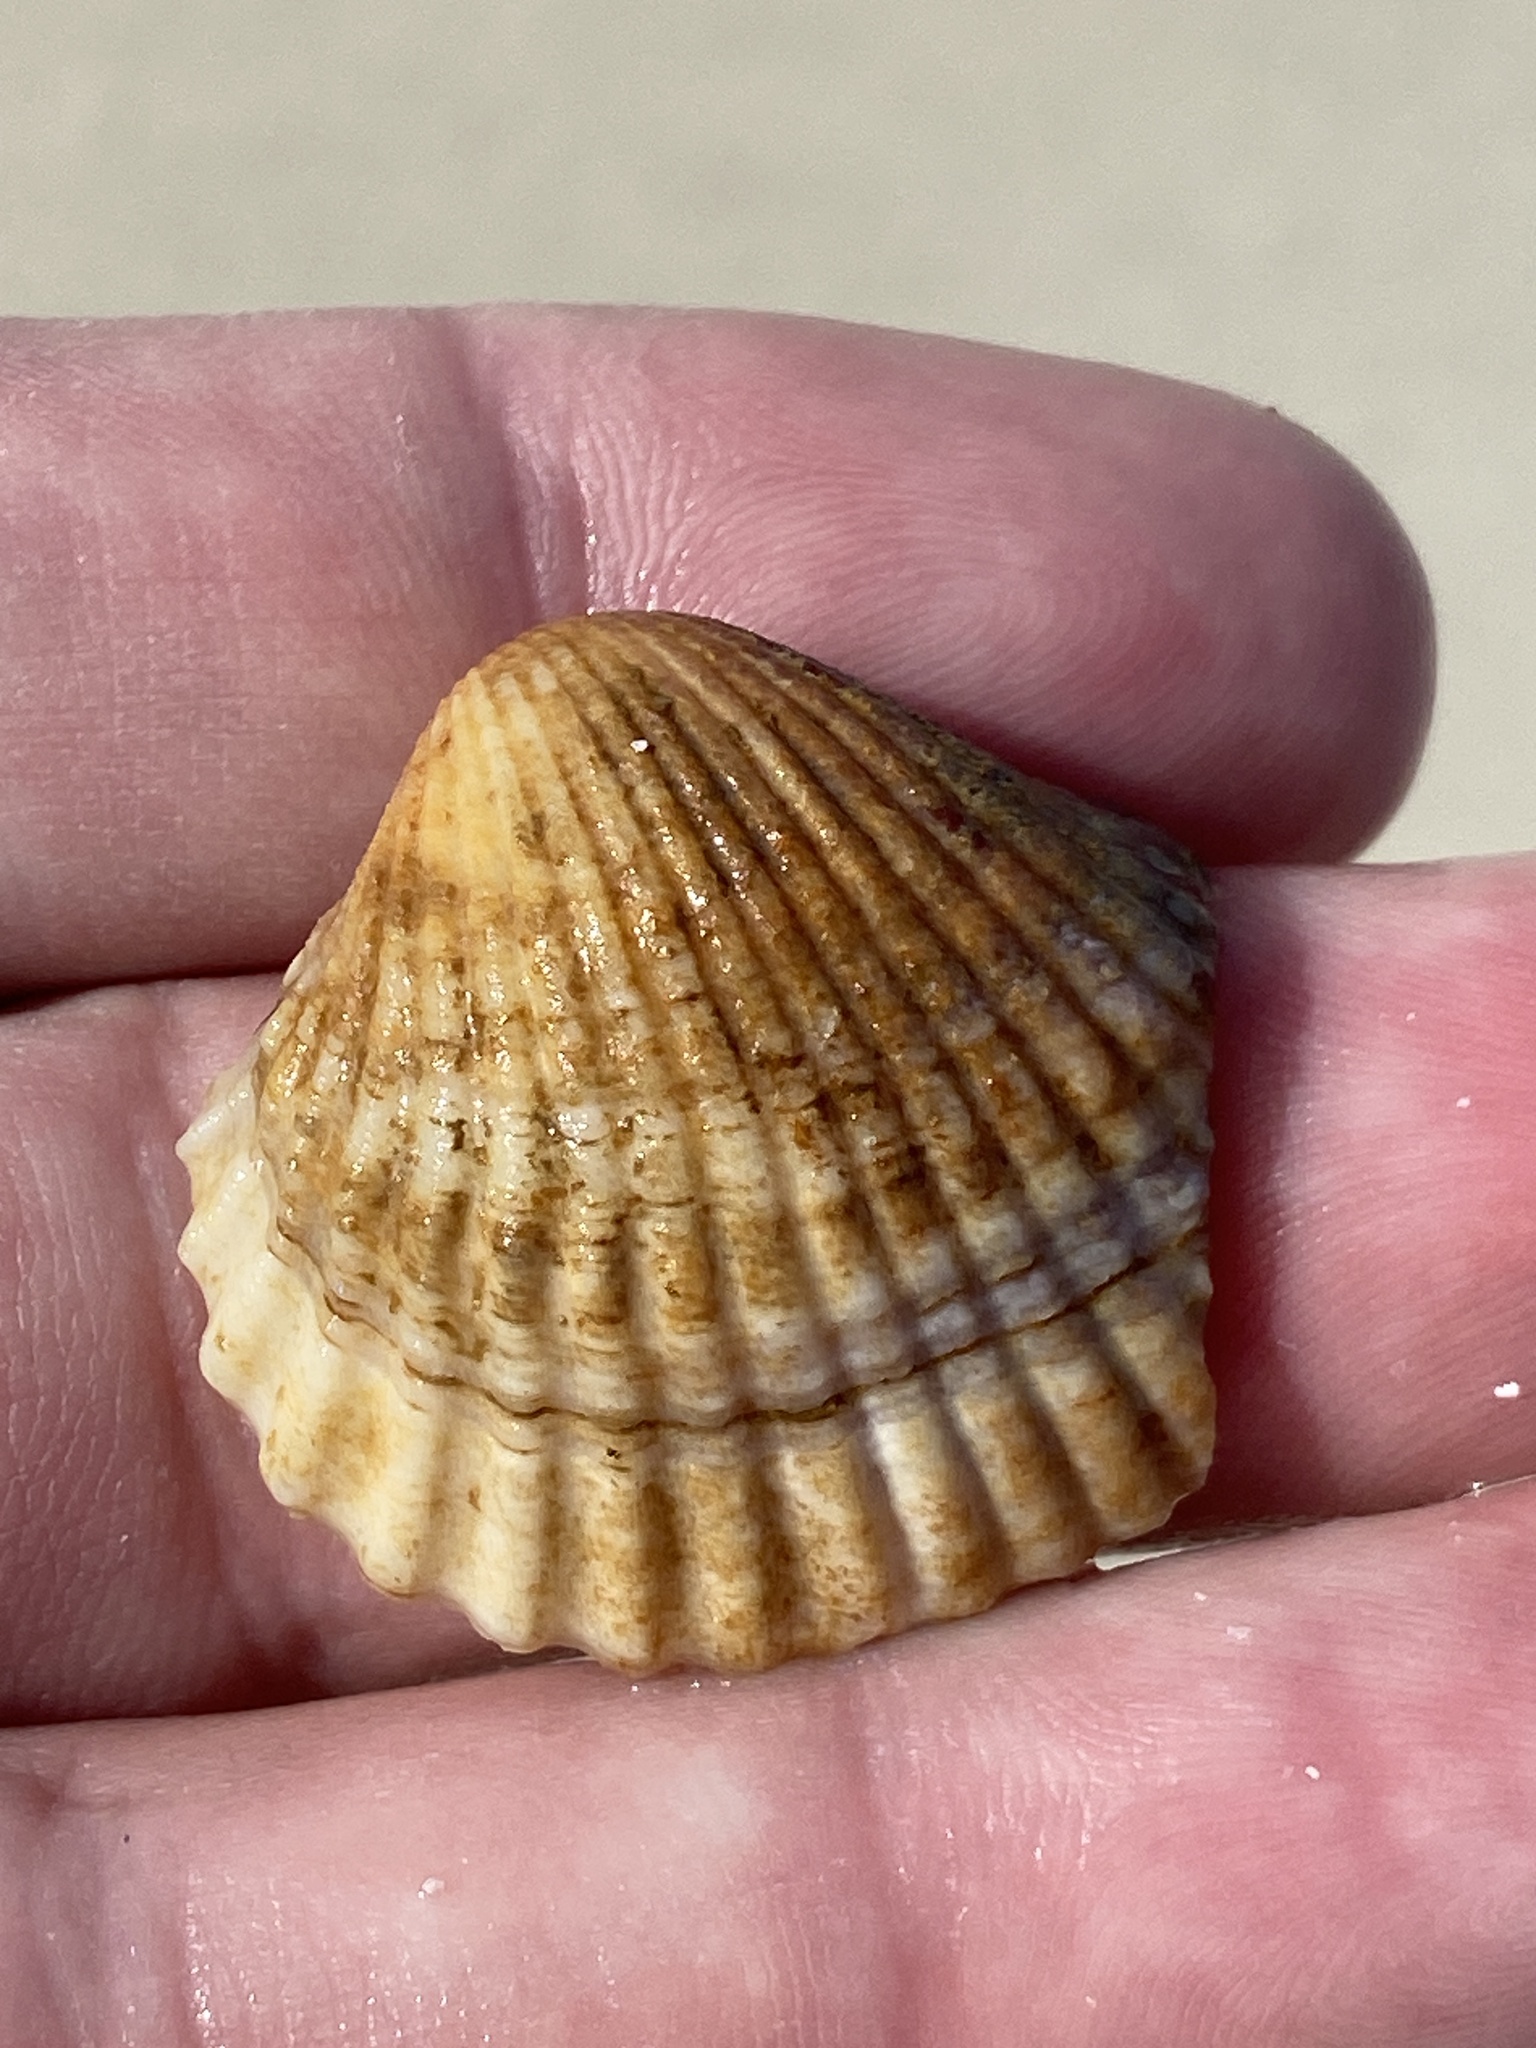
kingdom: Animalia
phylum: Mollusca
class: Bivalvia
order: Cardiida
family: Cardiidae
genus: Cerastoderma
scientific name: Cerastoderma glaucum
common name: Lagoon cockle
